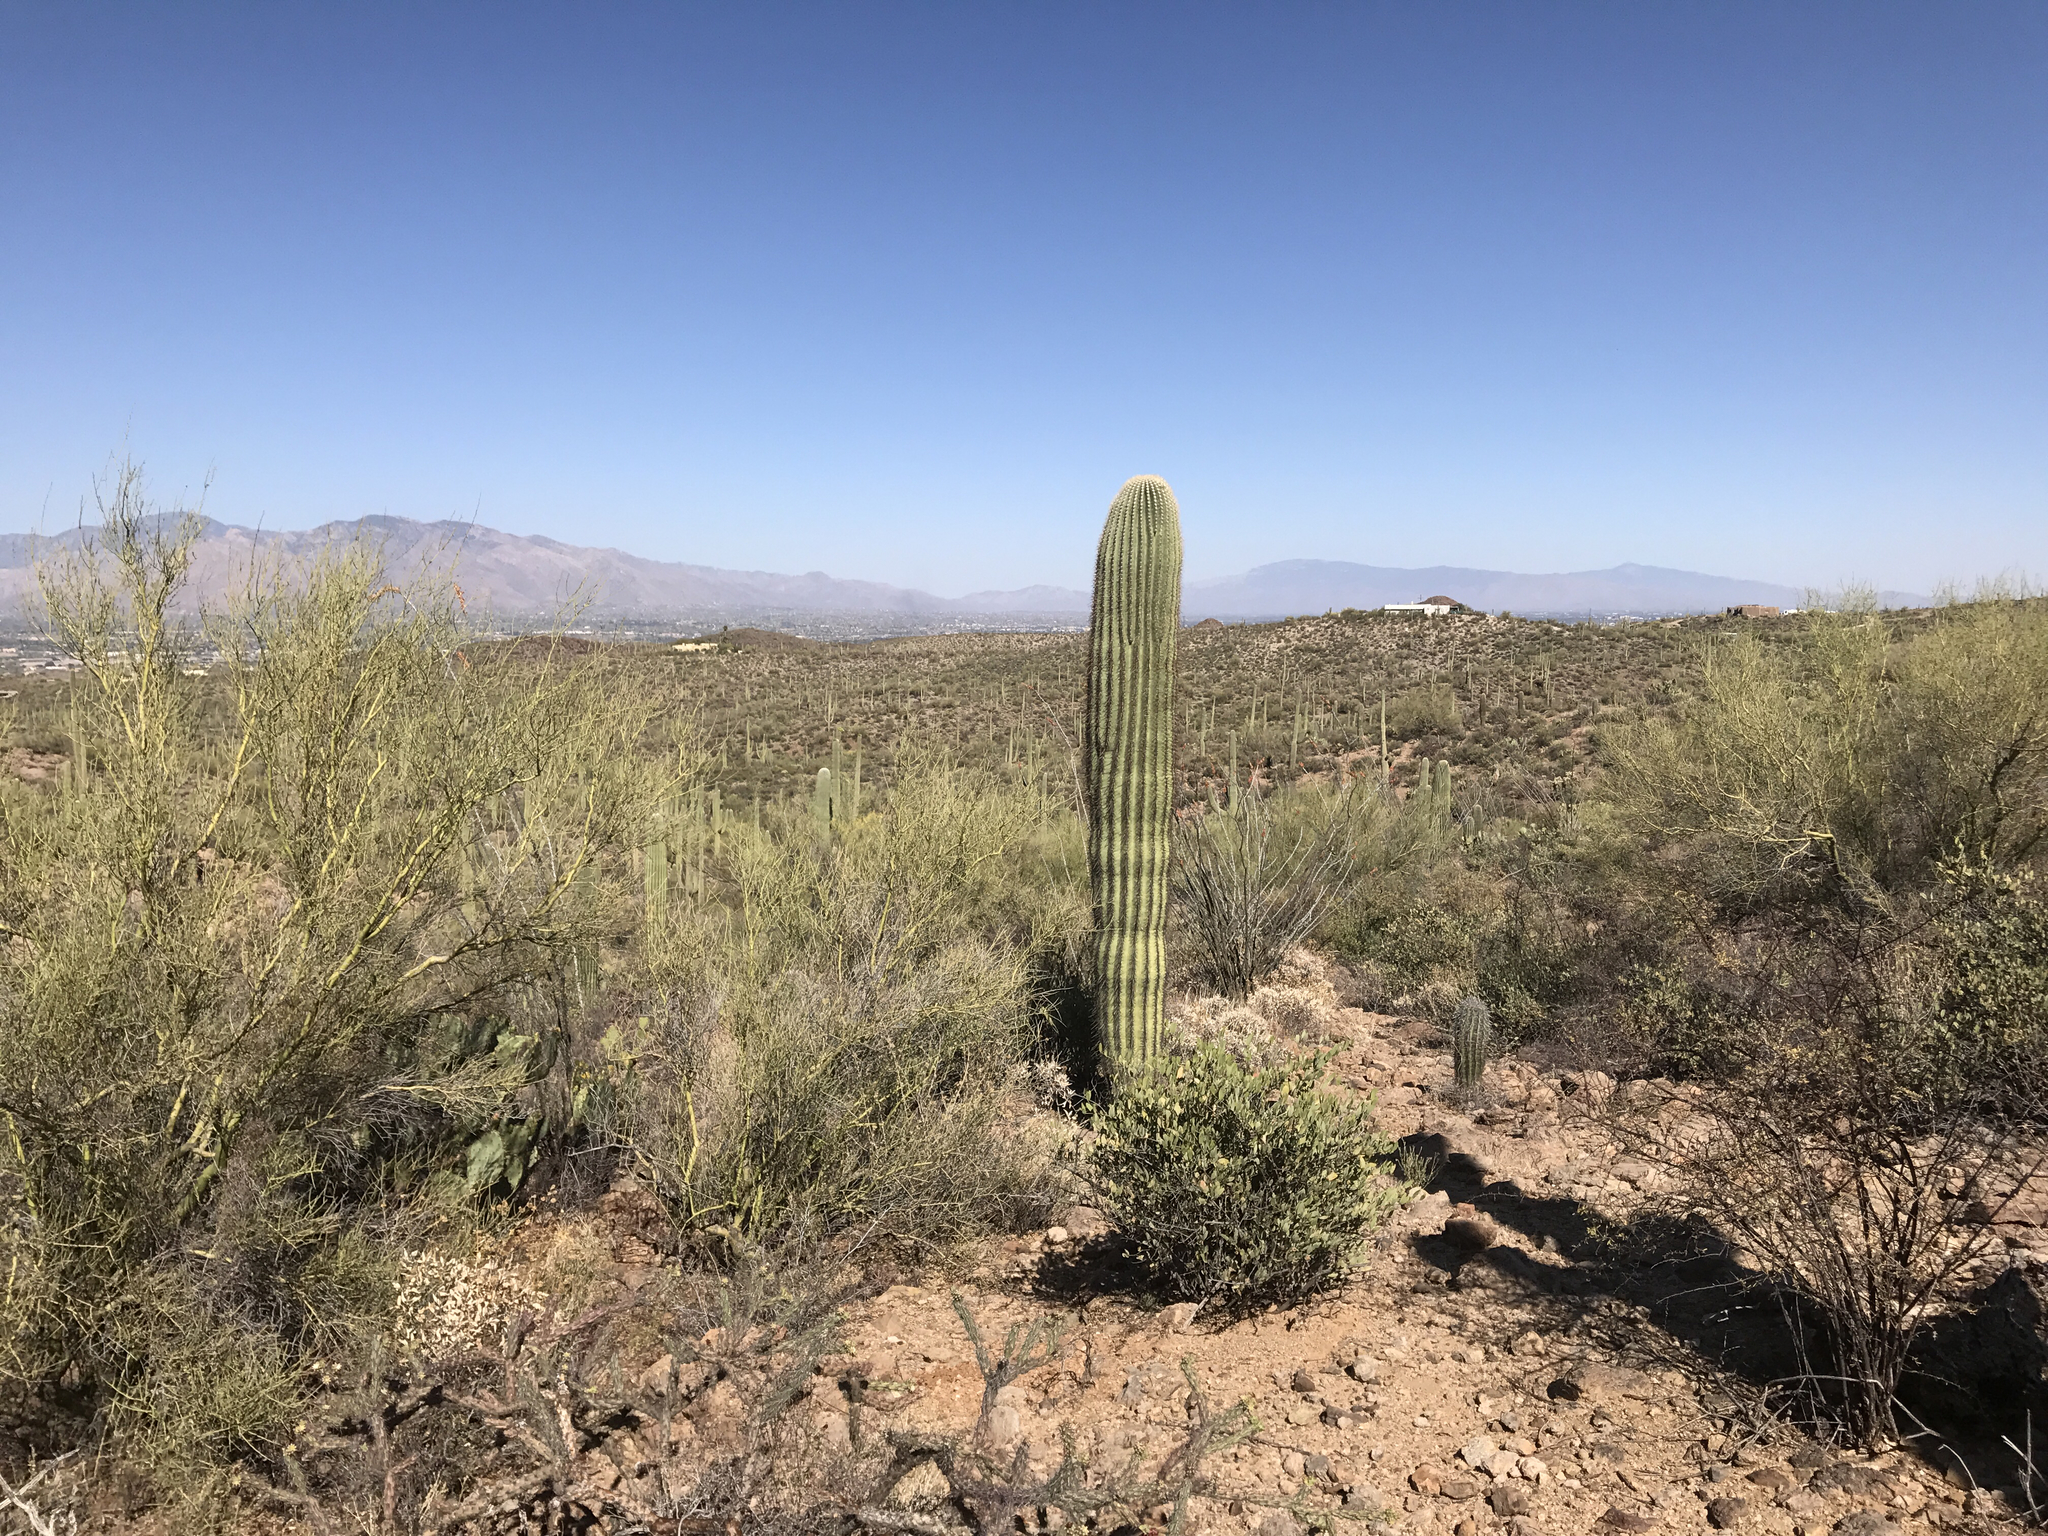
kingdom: Plantae
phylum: Tracheophyta
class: Magnoliopsida
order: Caryophyllales
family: Cactaceae
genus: Carnegiea
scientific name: Carnegiea gigantea
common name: Saguaro
